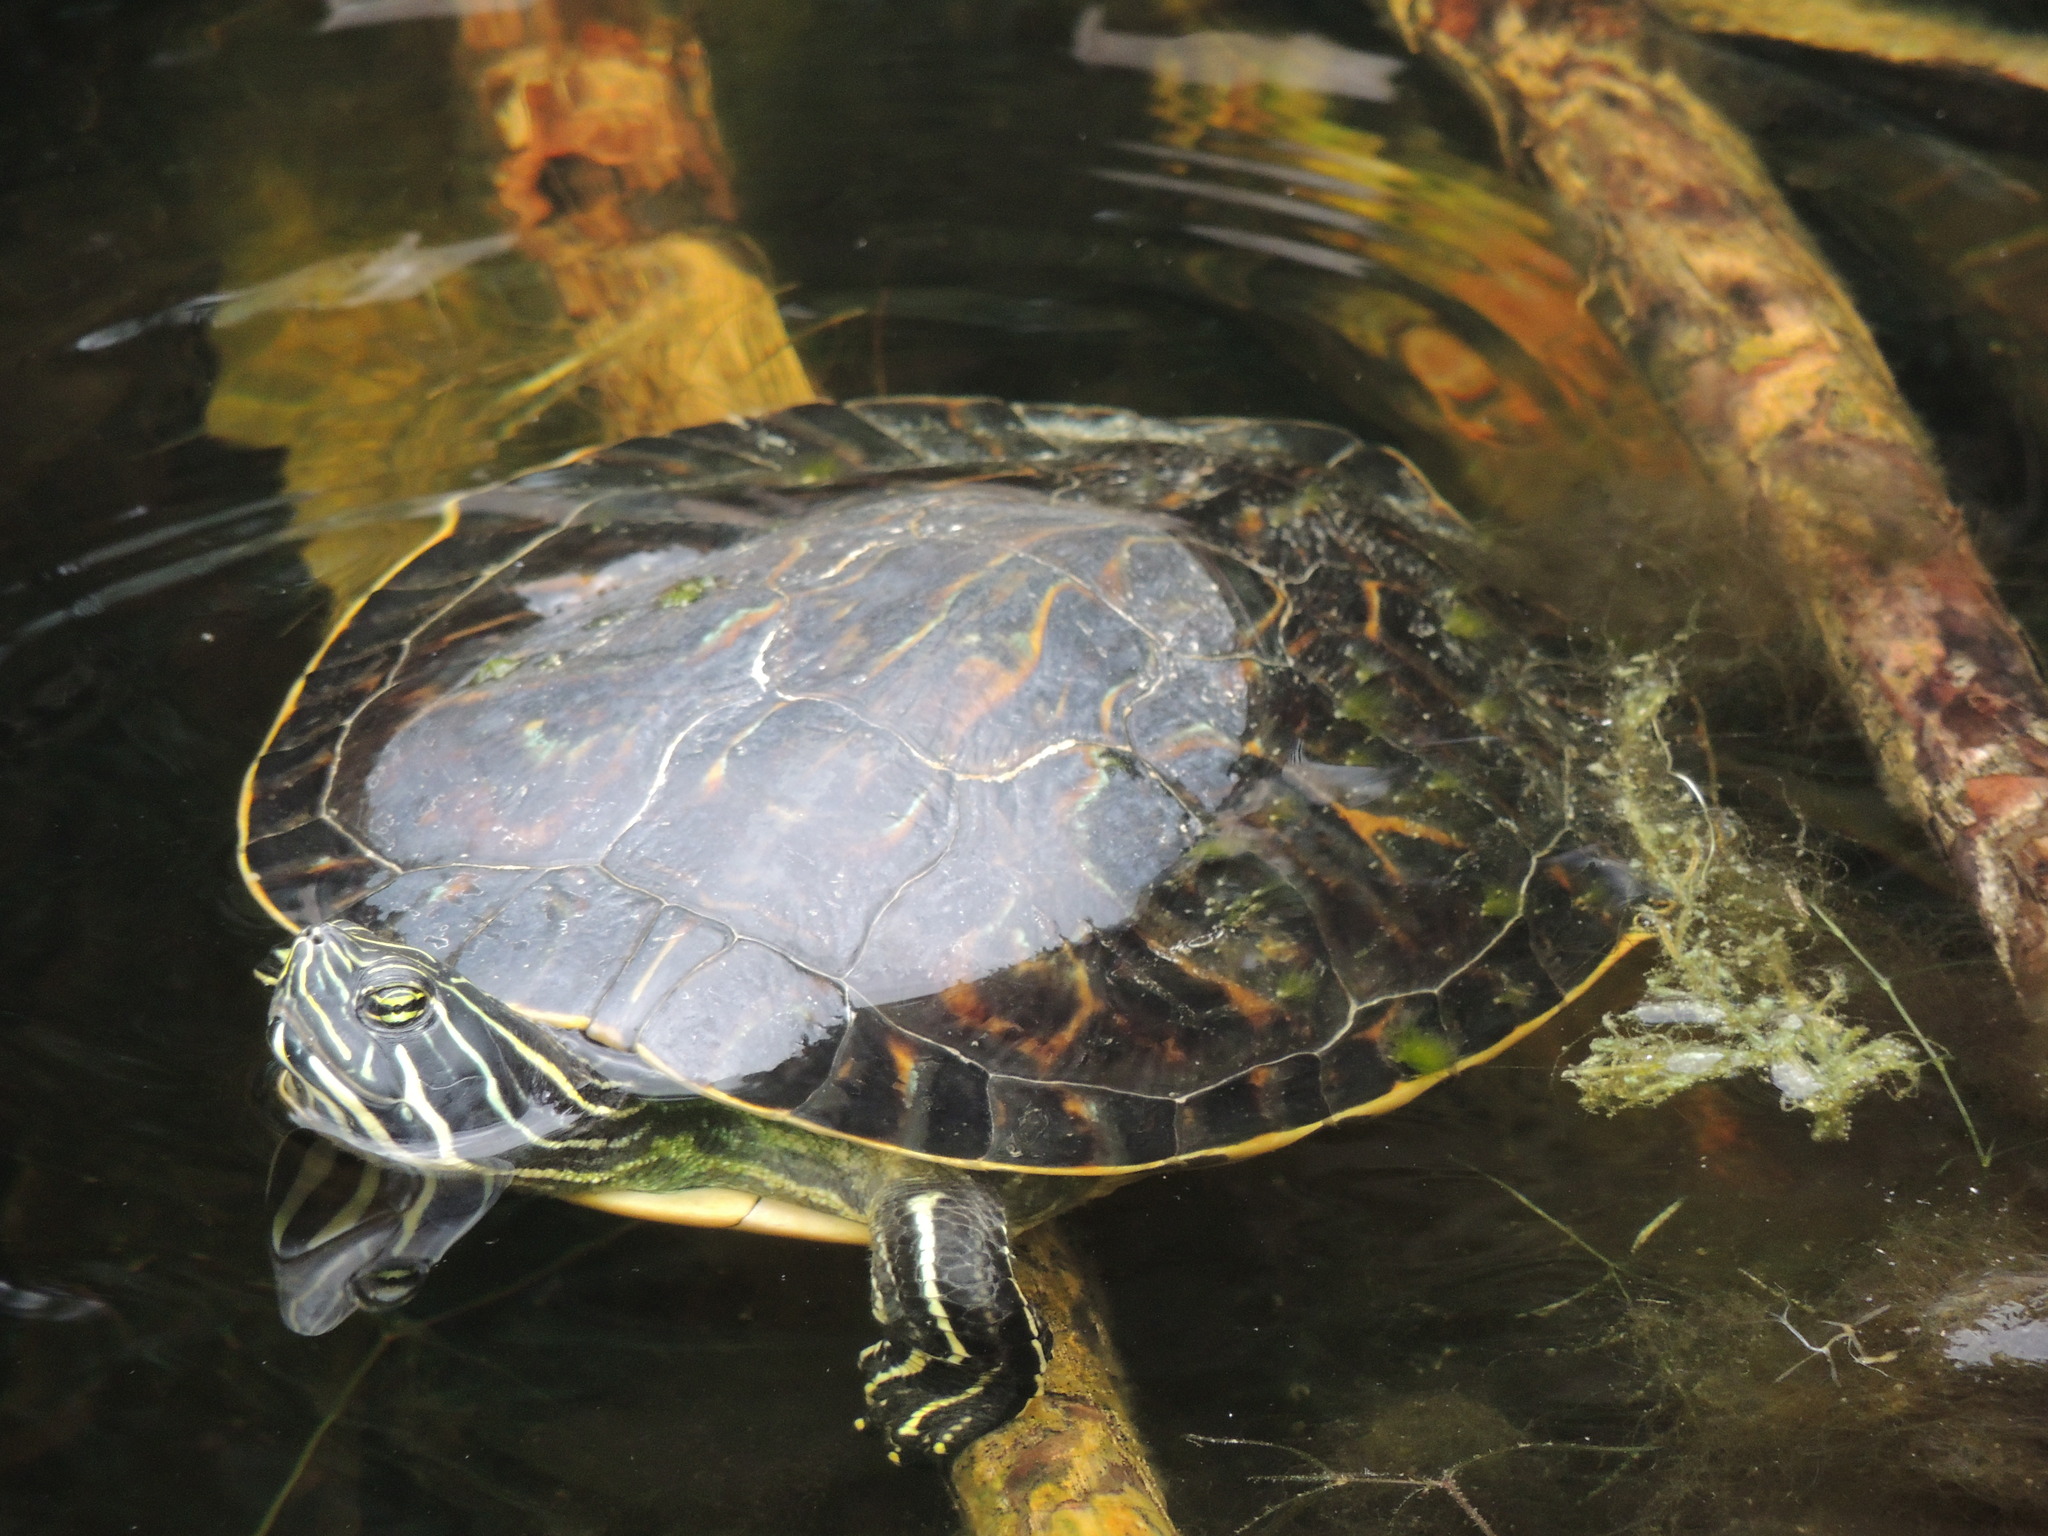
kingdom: Animalia
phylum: Chordata
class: Testudines
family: Emydidae
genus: Pseudemys
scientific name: Pseudemys peninsularis
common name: Peninsula cooter
